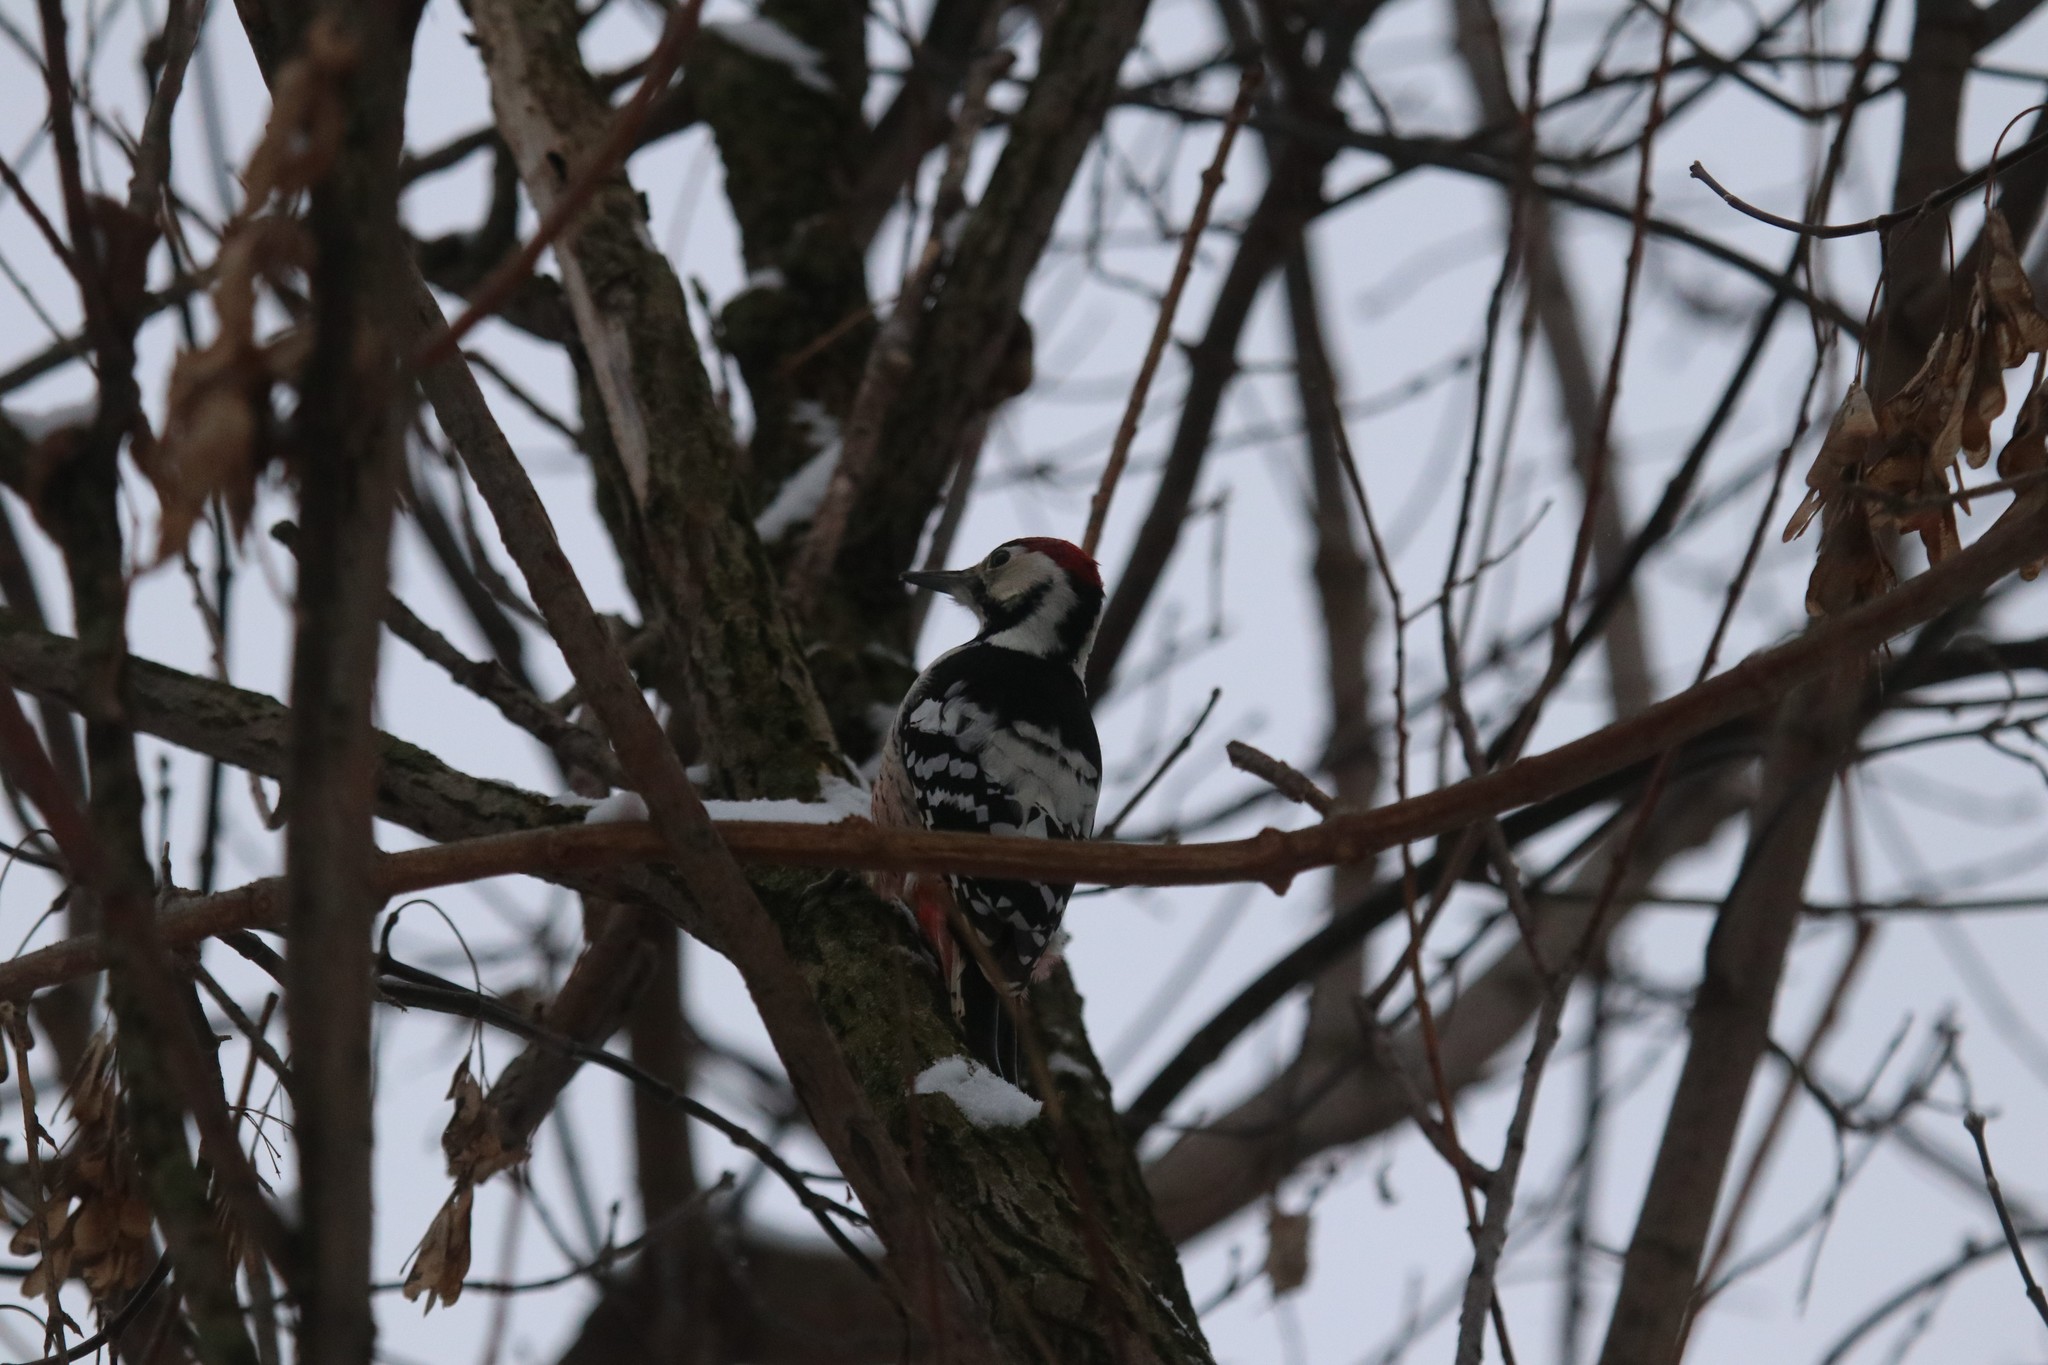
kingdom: Animalia
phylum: Chordata
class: Aves
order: Piciformes
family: Picidae
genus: Dendrocopos
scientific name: Dendrocopos leucotos
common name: White-backed woodpecker
